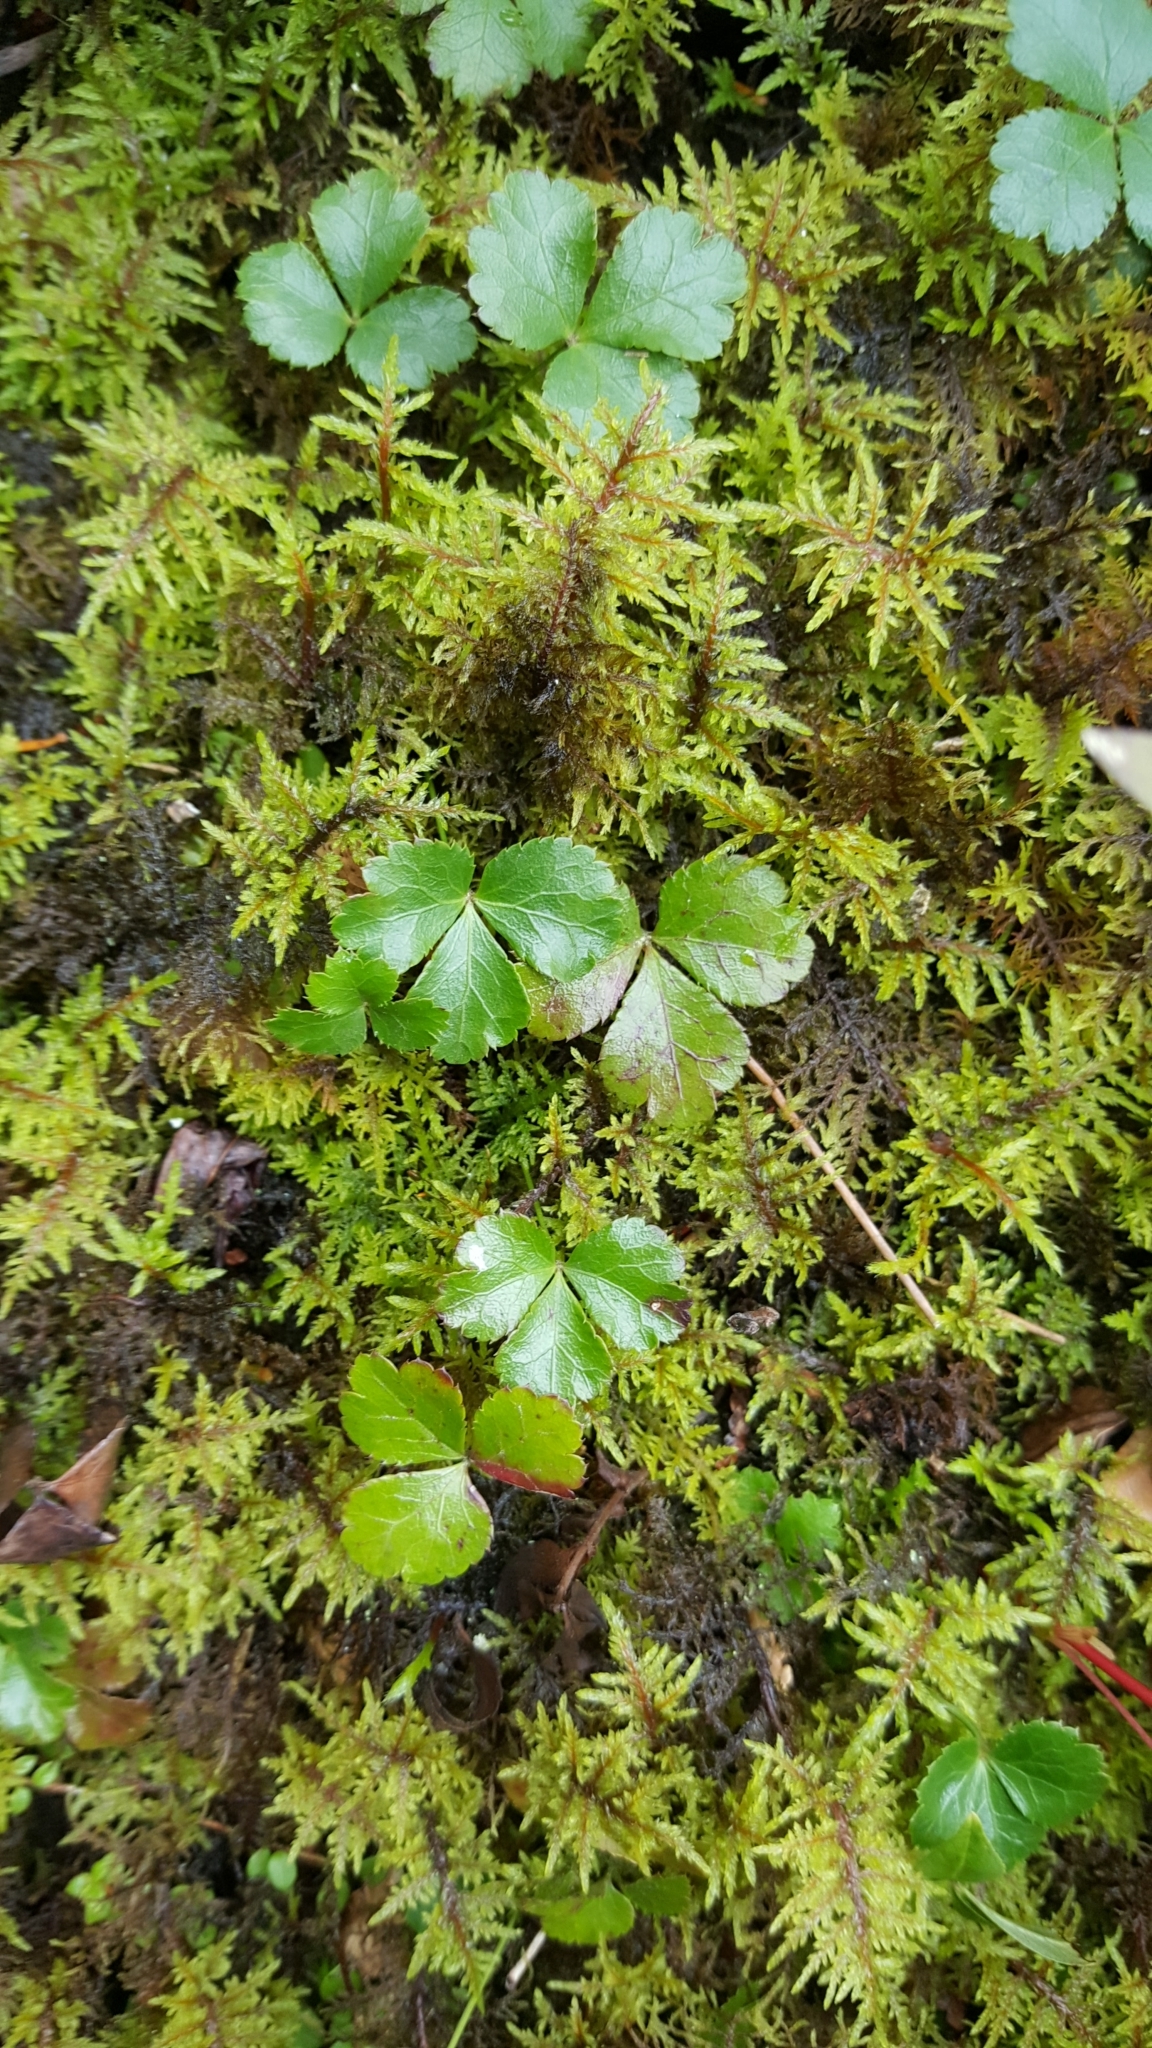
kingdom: Plantae
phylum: Tracheophyta
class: Magnoliopsida
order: Ranunculales
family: Ranunculaceae
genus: Coptis
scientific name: Coptis trifolia
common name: Canker-root
